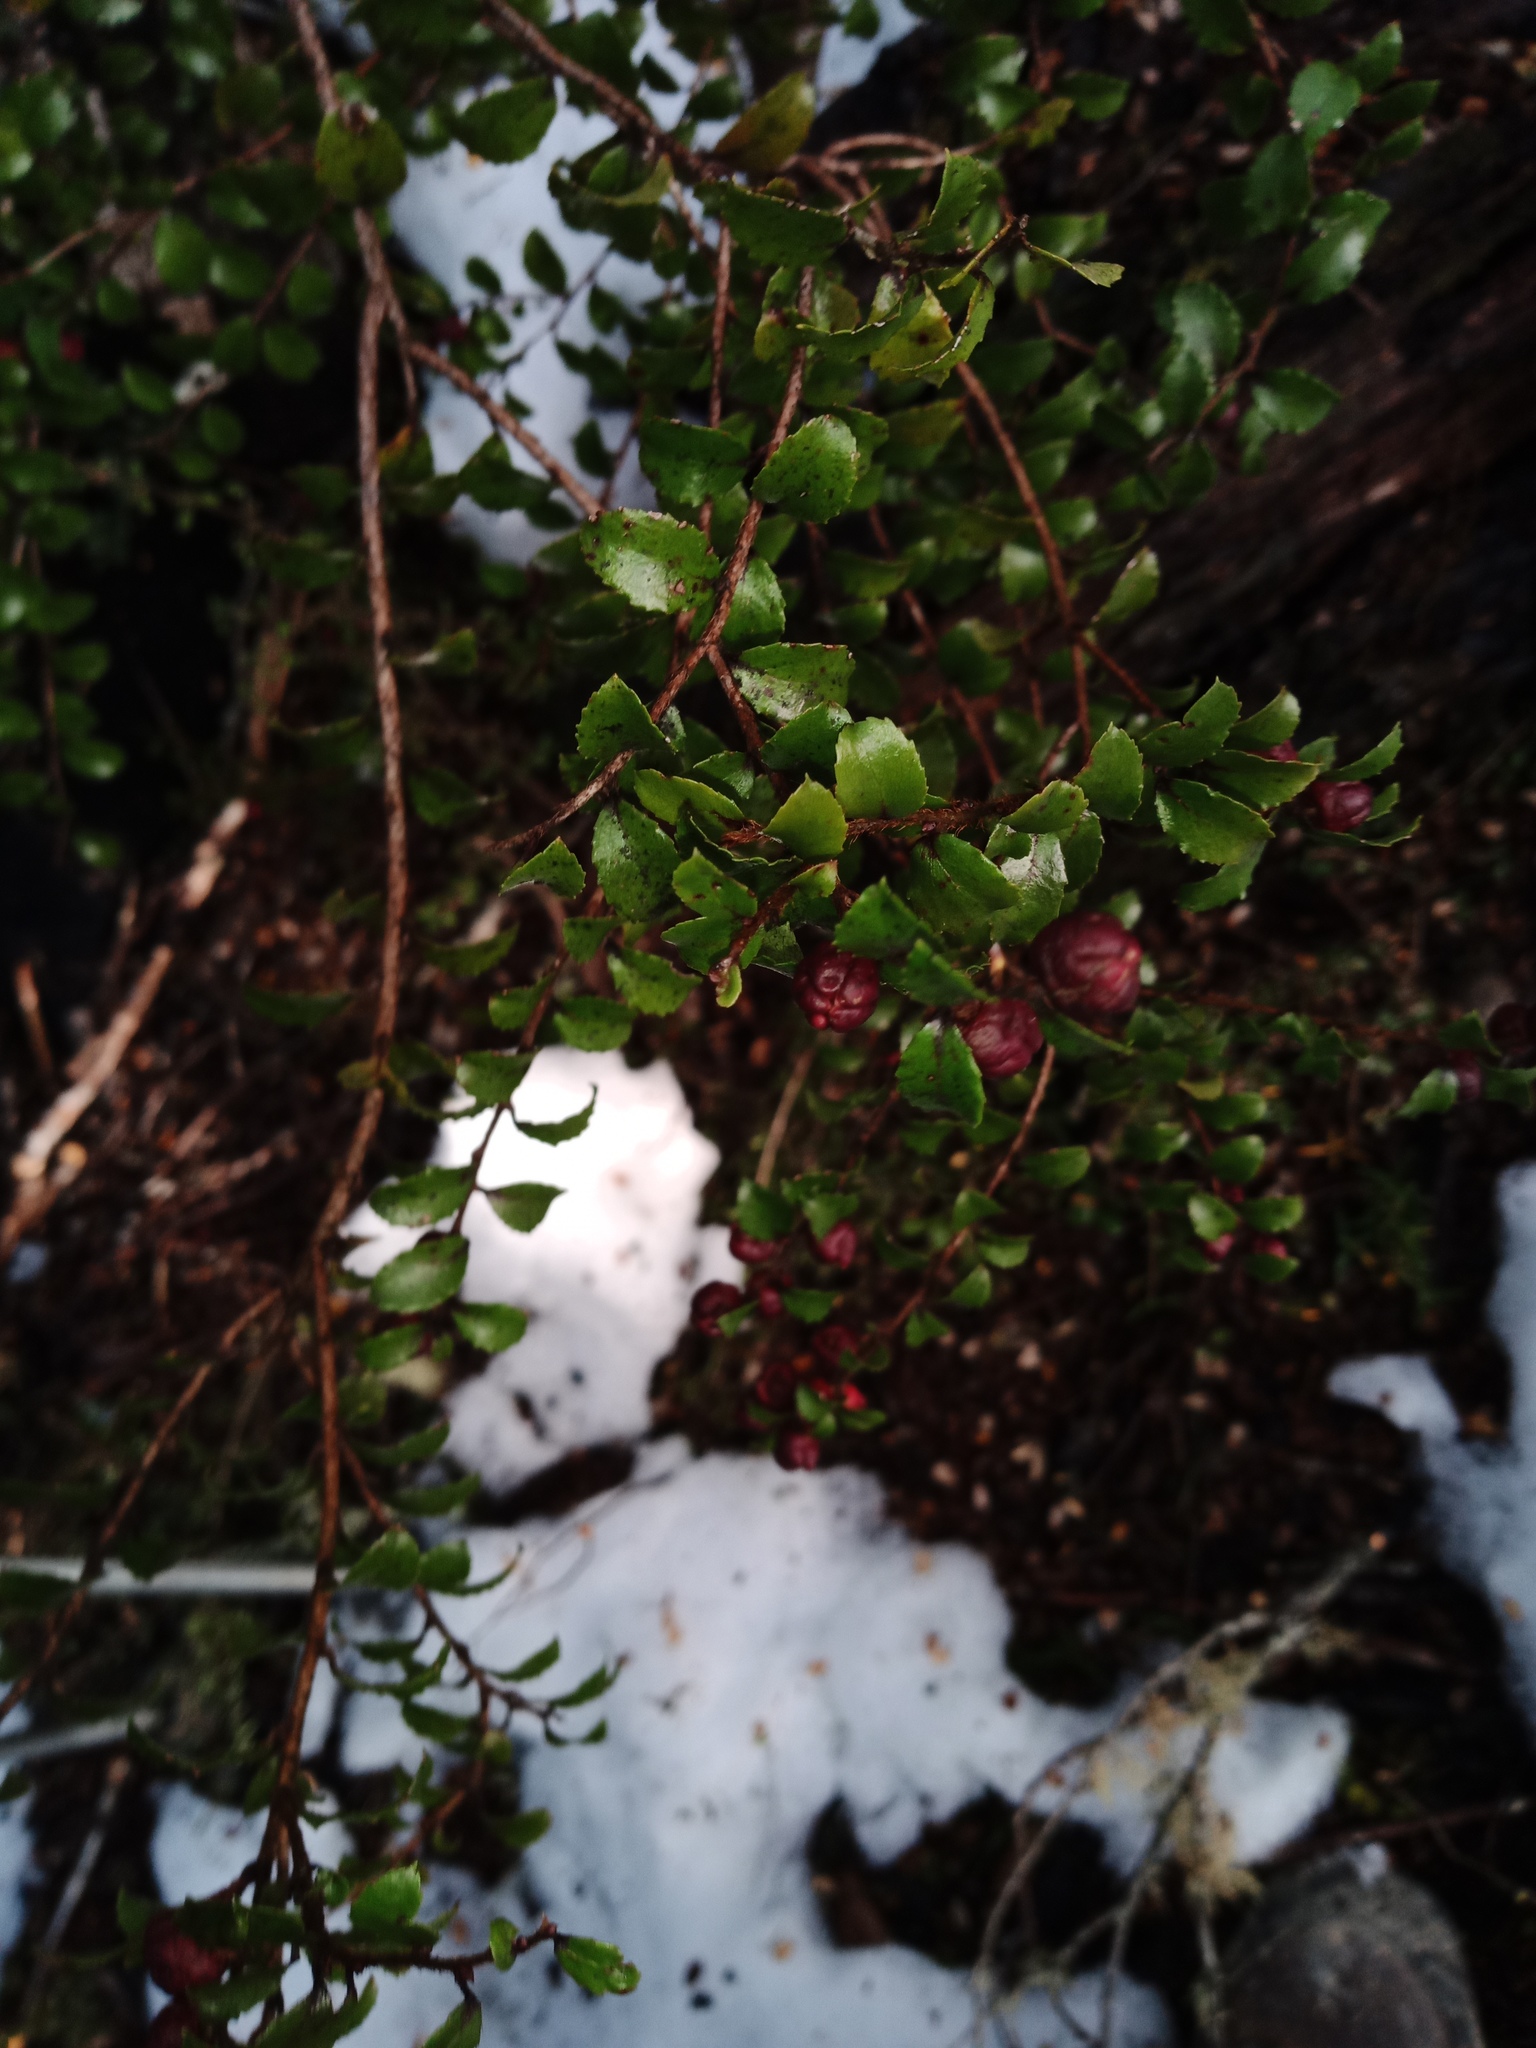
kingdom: Plantae
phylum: Tracheophyta
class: Magnoliopsida
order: Ericales
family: Ericaceae
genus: Gaultheria
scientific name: Gaultheria antipoda
